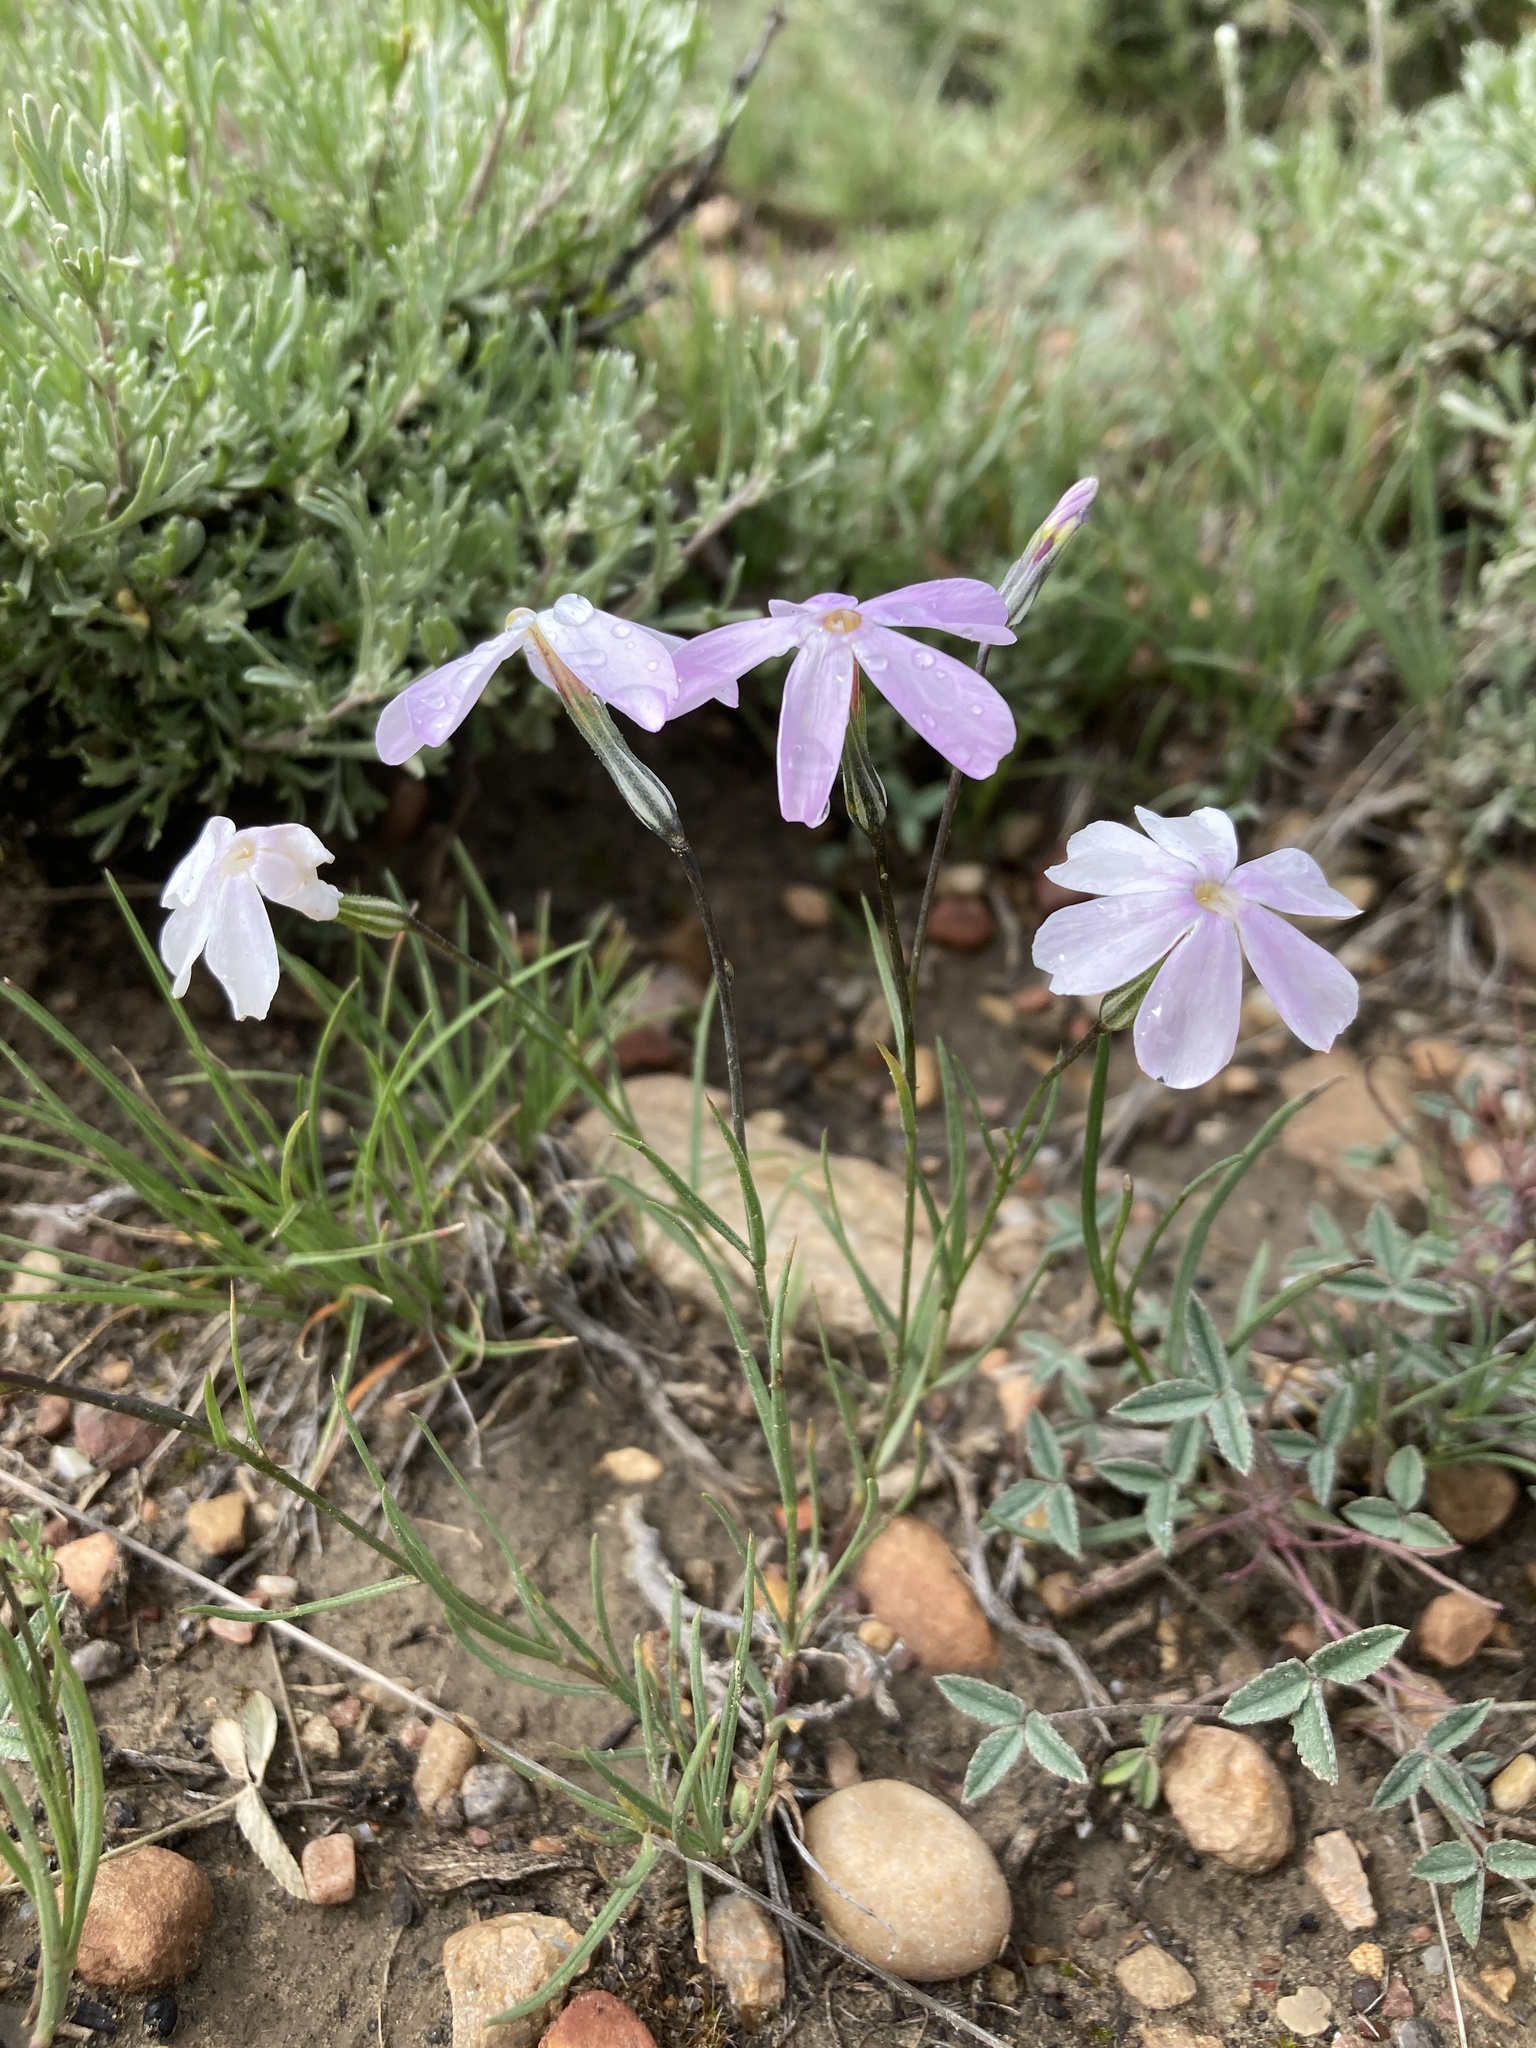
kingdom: Plantae
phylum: Tracheophyta
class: Magnoliopsida
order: Ericales
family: Polemoniaceae
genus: Phlox
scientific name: Phlox longifolia
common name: Longleaf phlox
